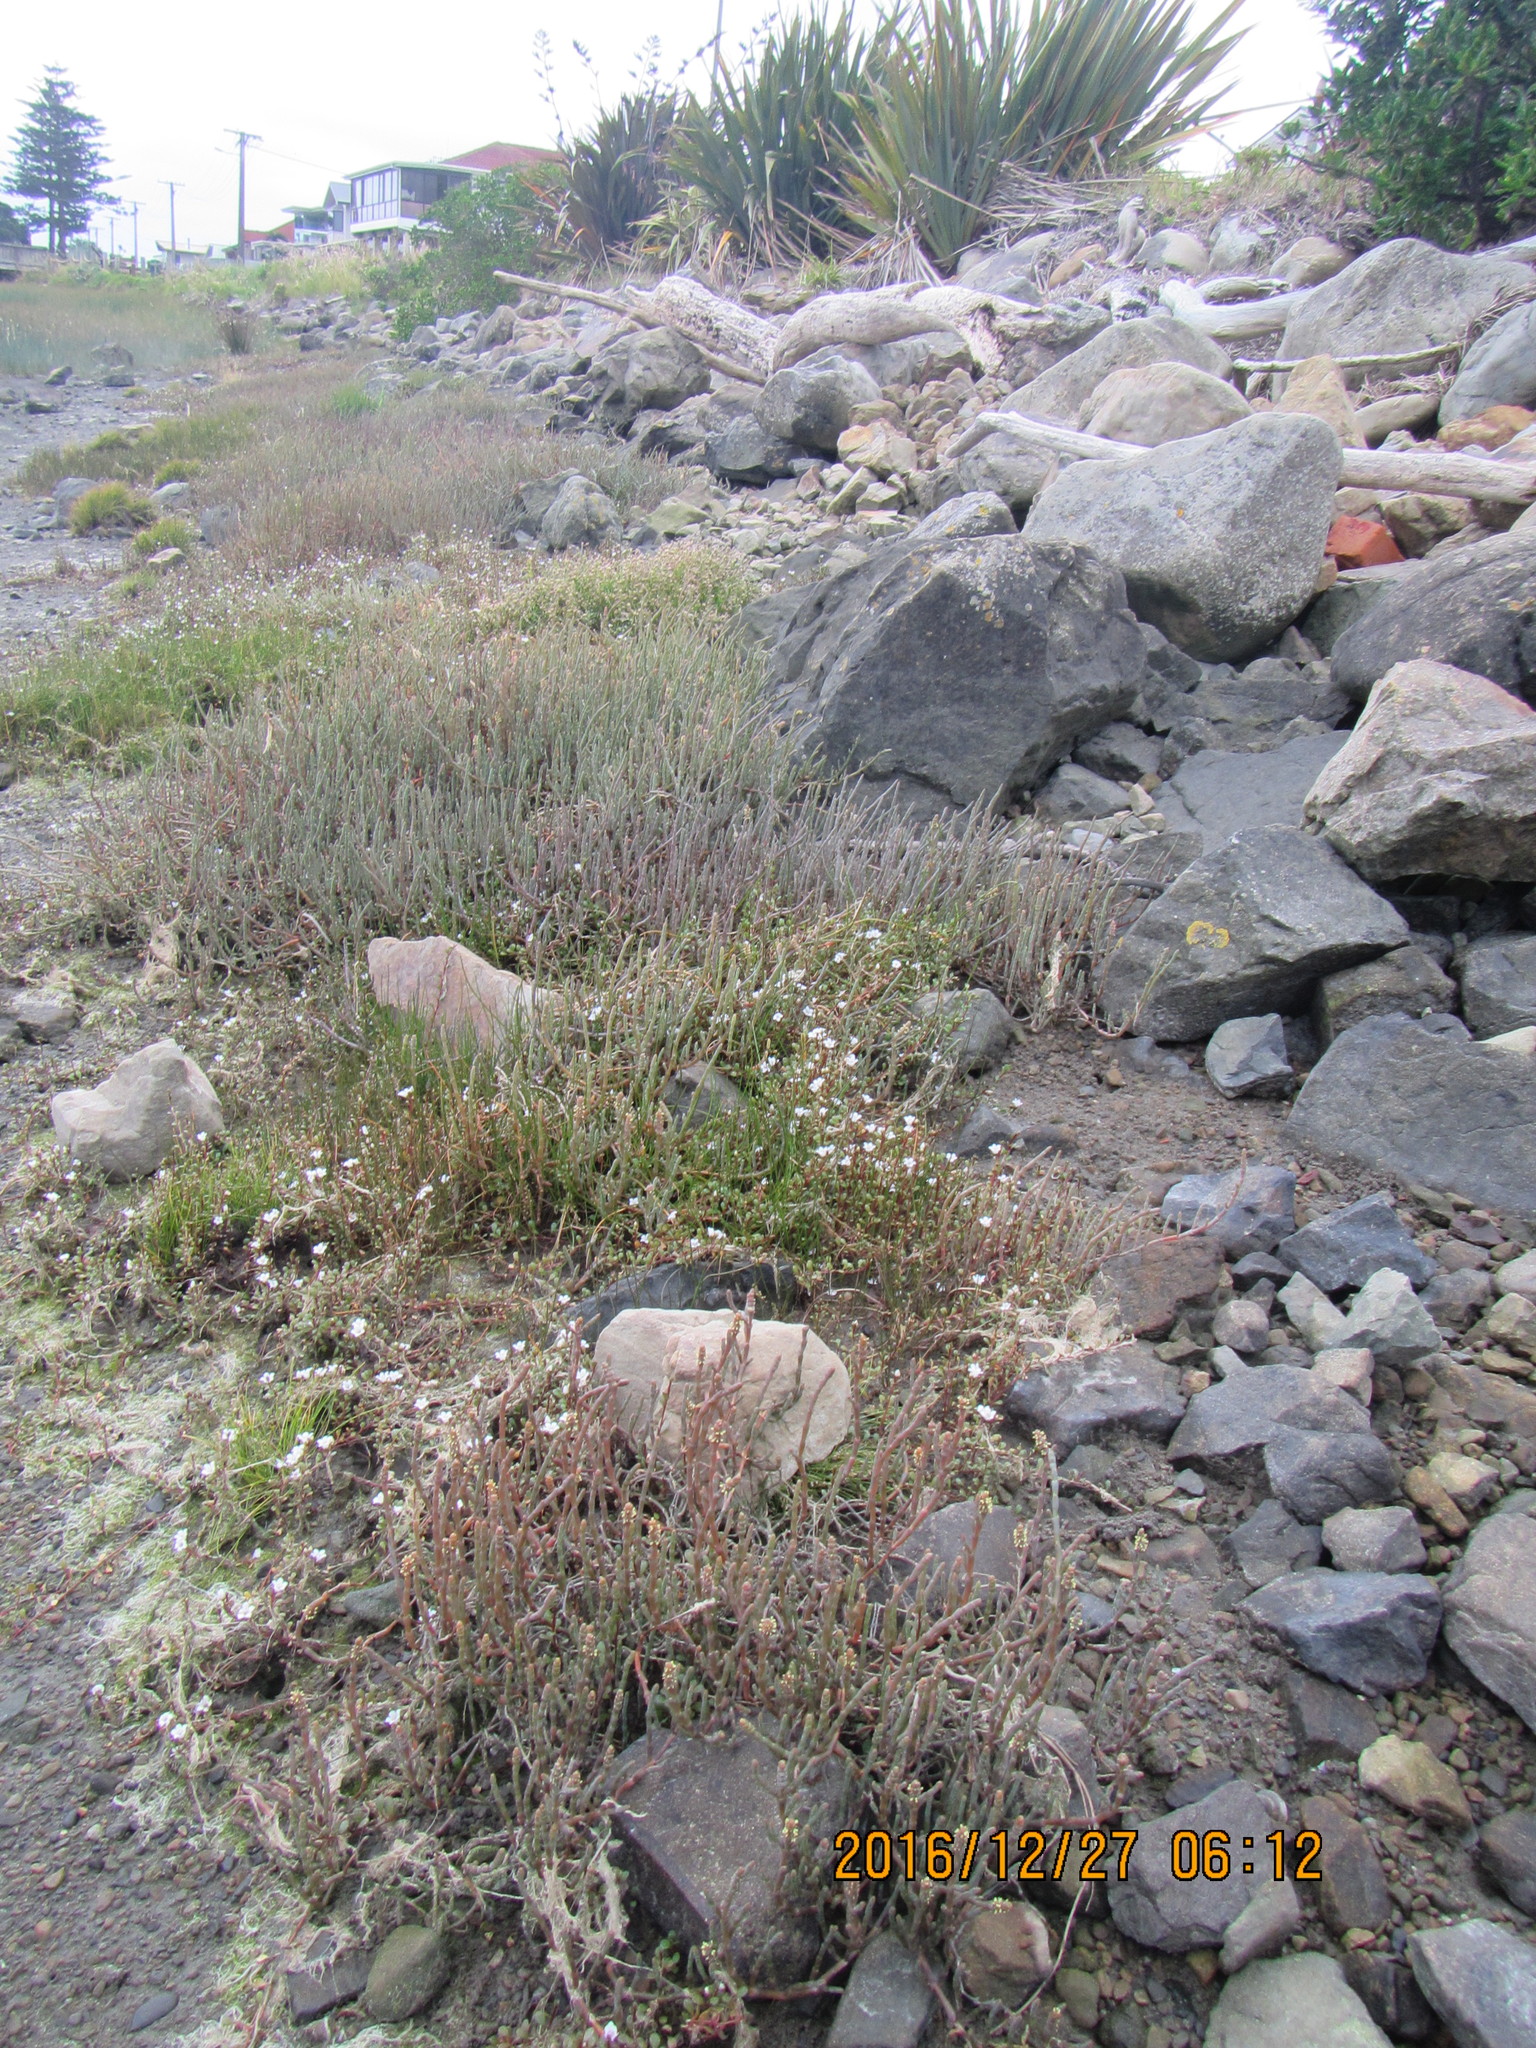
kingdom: Plantae
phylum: Tracheophyta
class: Magnoliopsida
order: Ericales
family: Primulaceae
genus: Samolus
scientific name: Samolus repens
